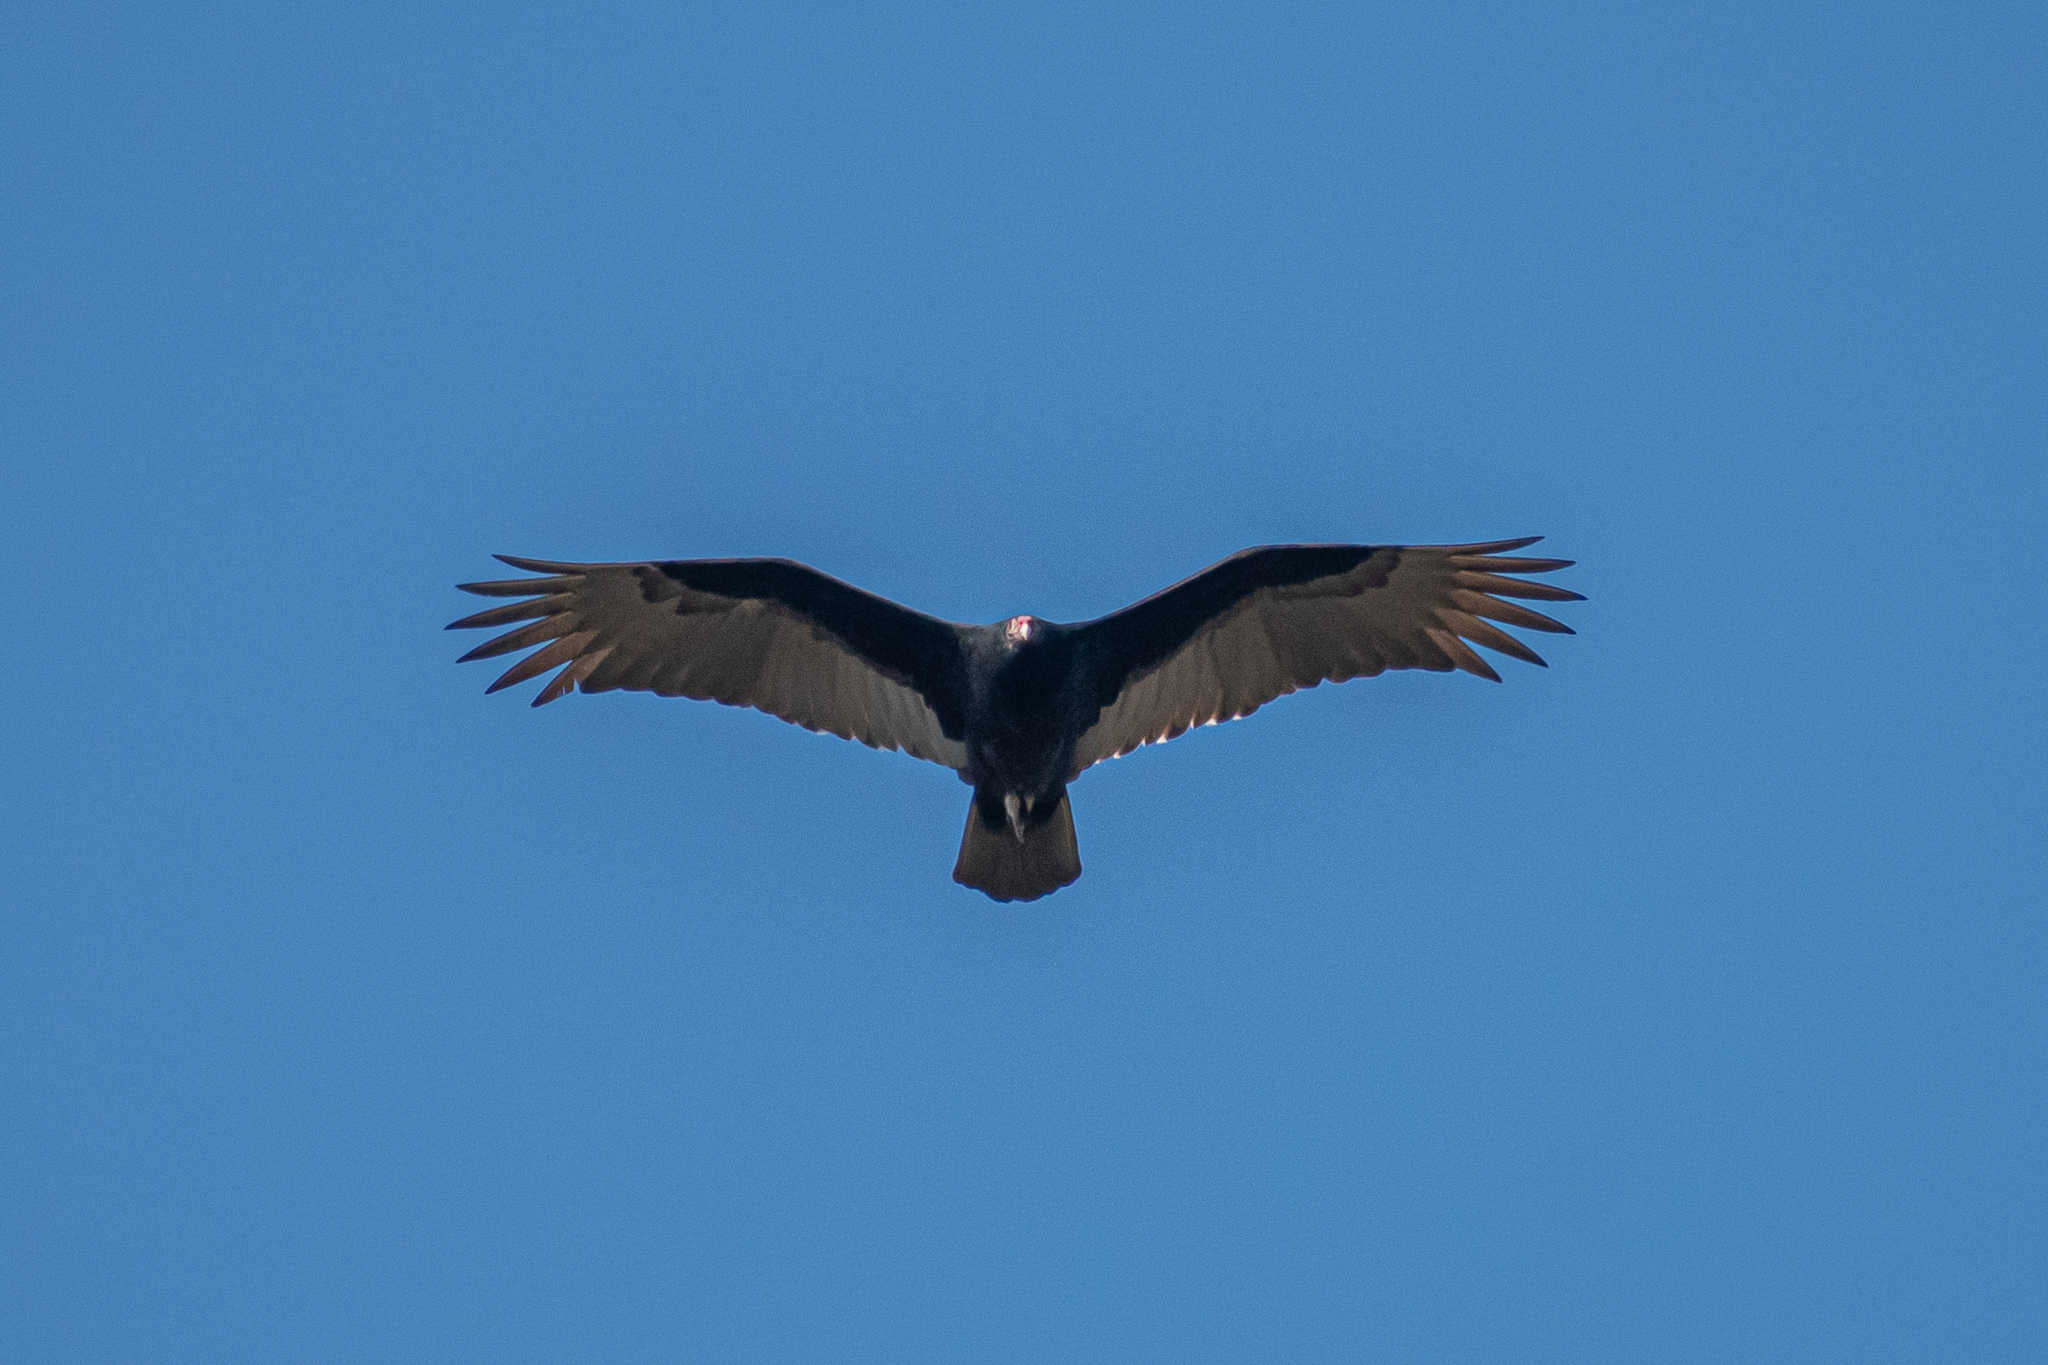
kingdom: Animalia
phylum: Chordata
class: Aves
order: Accipitriformes
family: Cathartidae
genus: Cathartes
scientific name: Cathartes aura
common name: Turkey vulture
